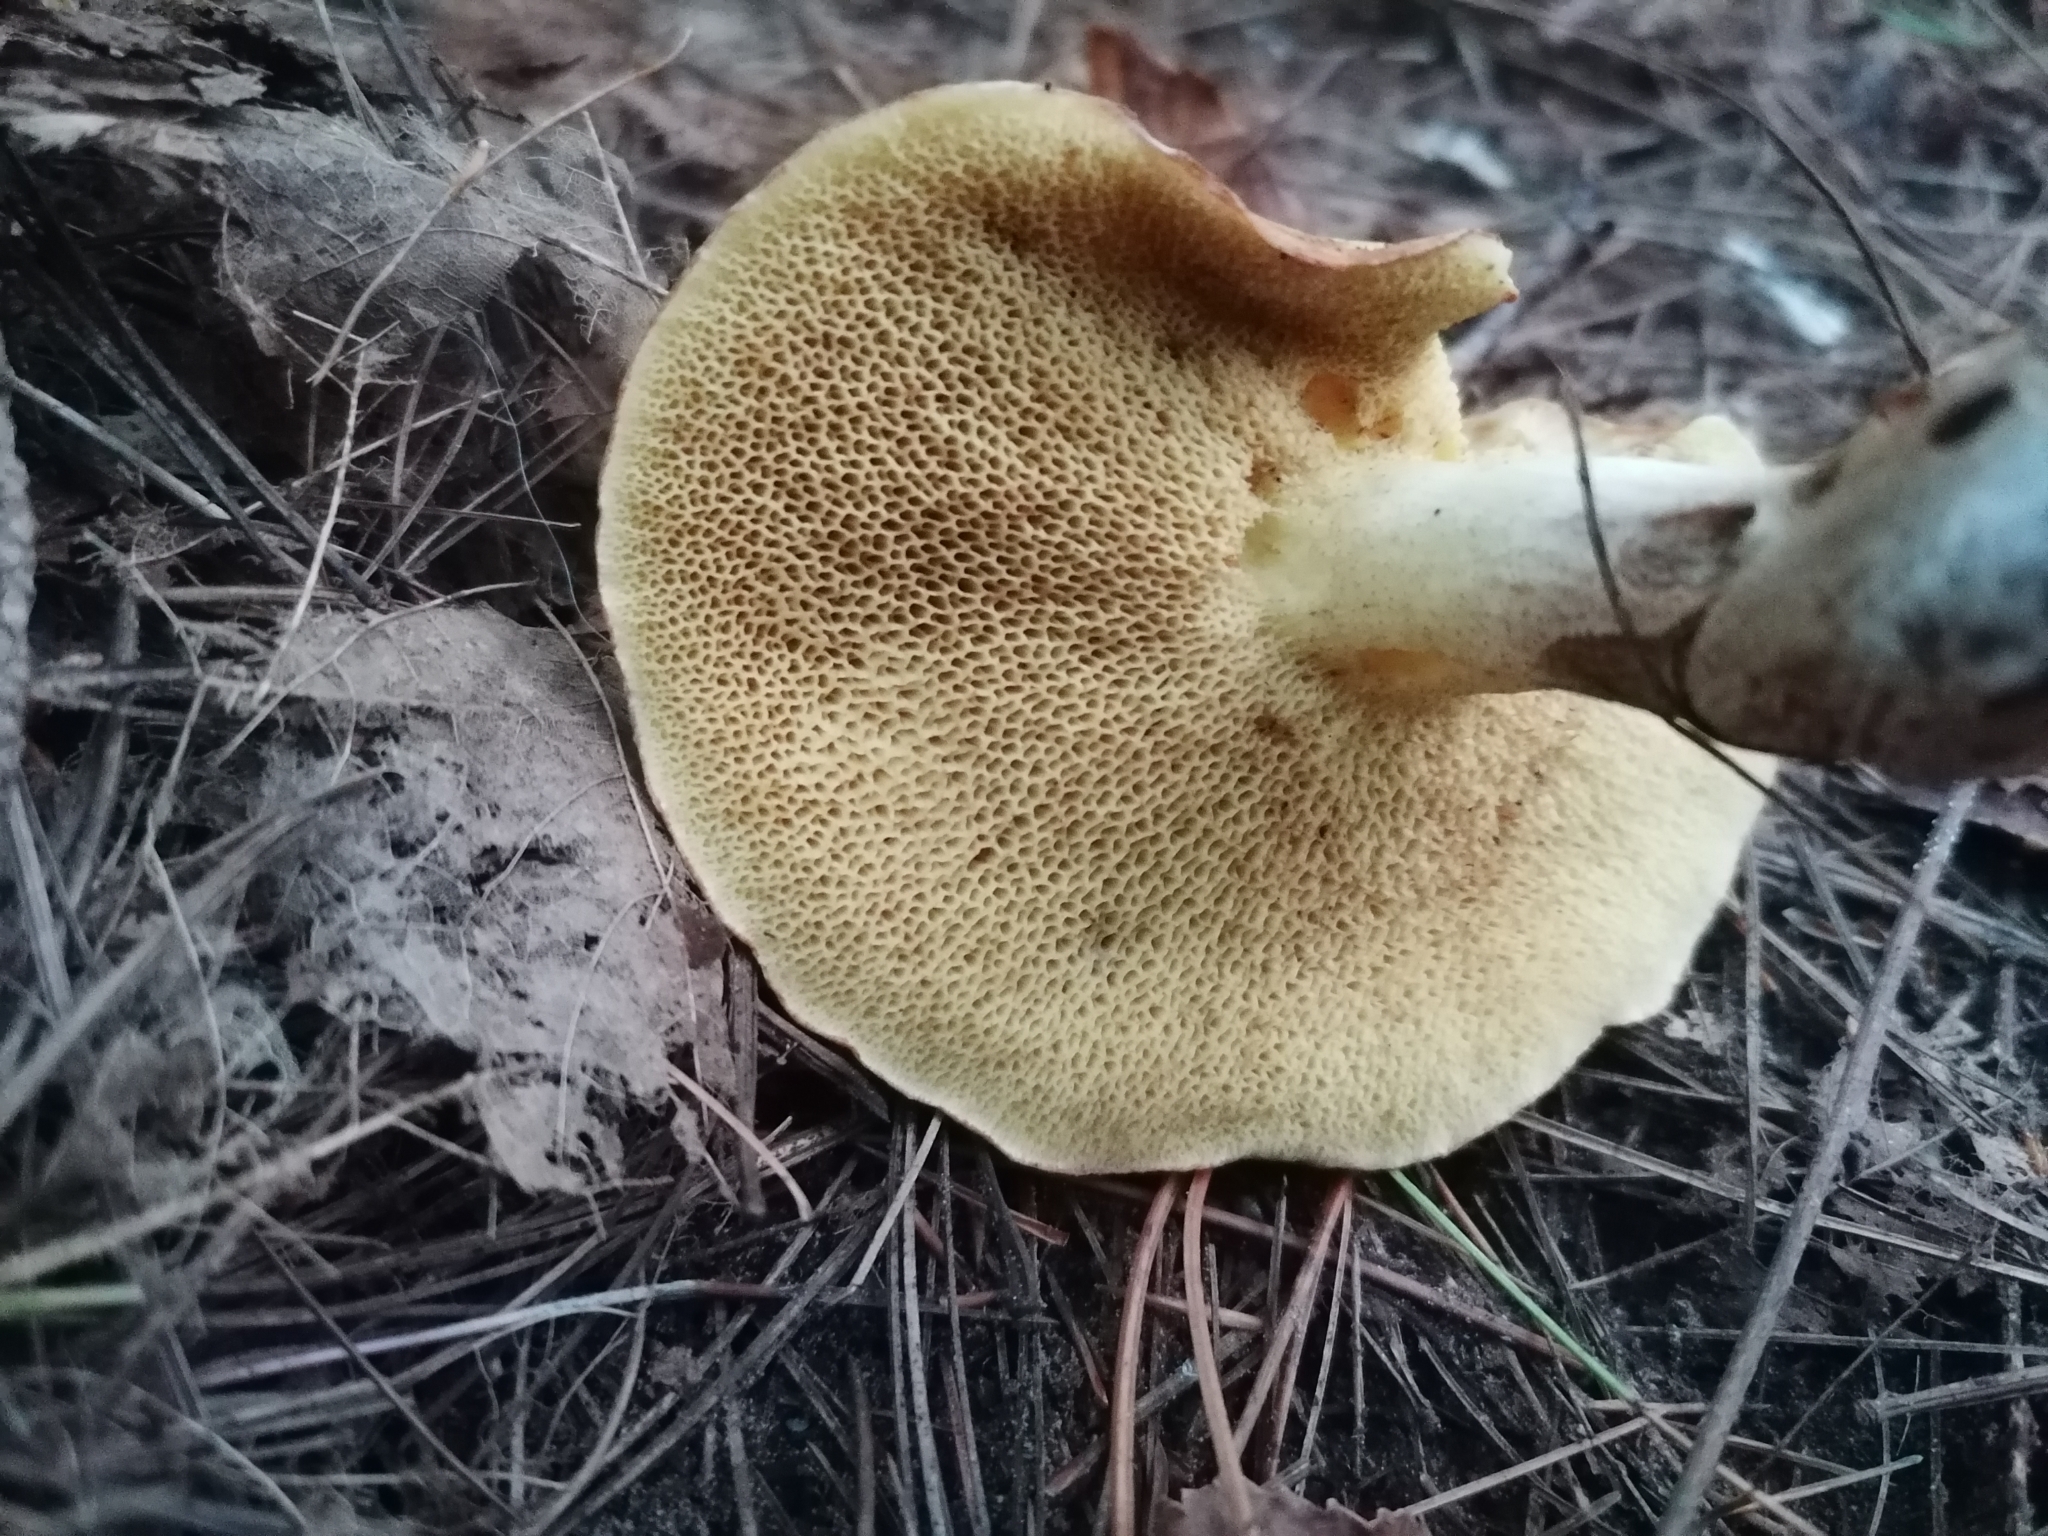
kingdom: Fungi
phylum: Basidiomycota
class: Agaricomycetes
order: Boletales
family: Suillaceae
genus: Fuscoboletinus
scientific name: Fuscoboletinus weaverae
